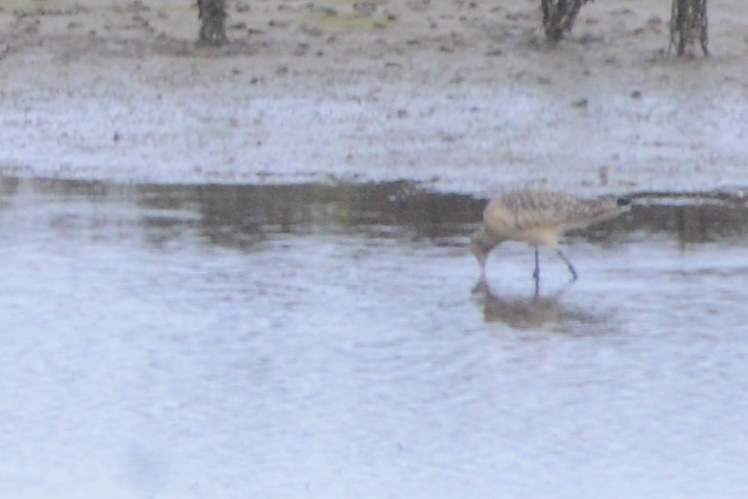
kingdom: Animalia
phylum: Chordata
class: Aves
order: Charadriiformes
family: Scolopacidae
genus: Limosa
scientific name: Limosa fedoa
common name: Marbled godwit
